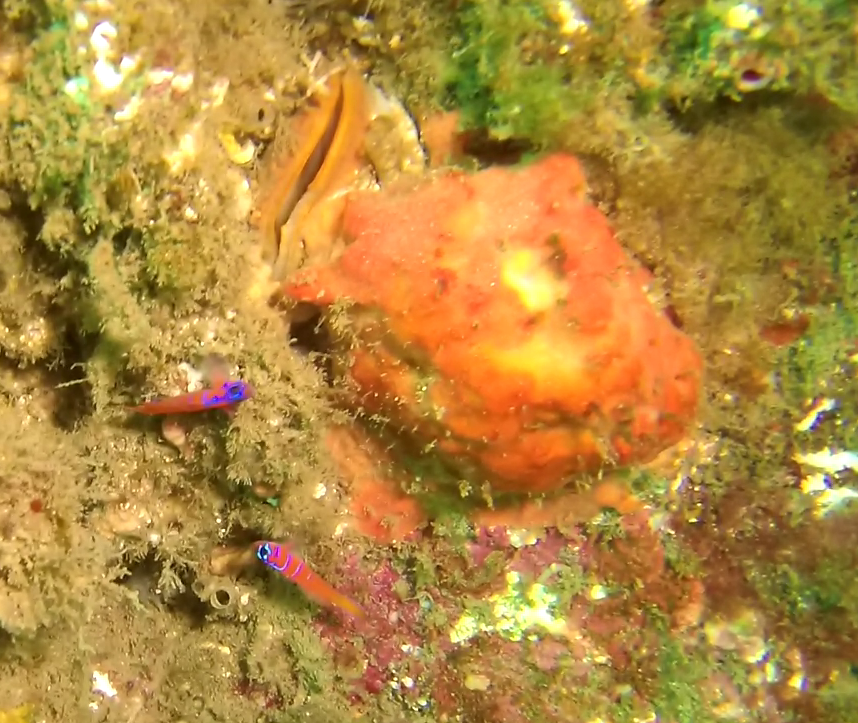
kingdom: Animalia
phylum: Chordata
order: Perciformes
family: Gobiidae
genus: Lythrypnus
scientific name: Lythrypnus dalli
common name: Bluebanded goby
